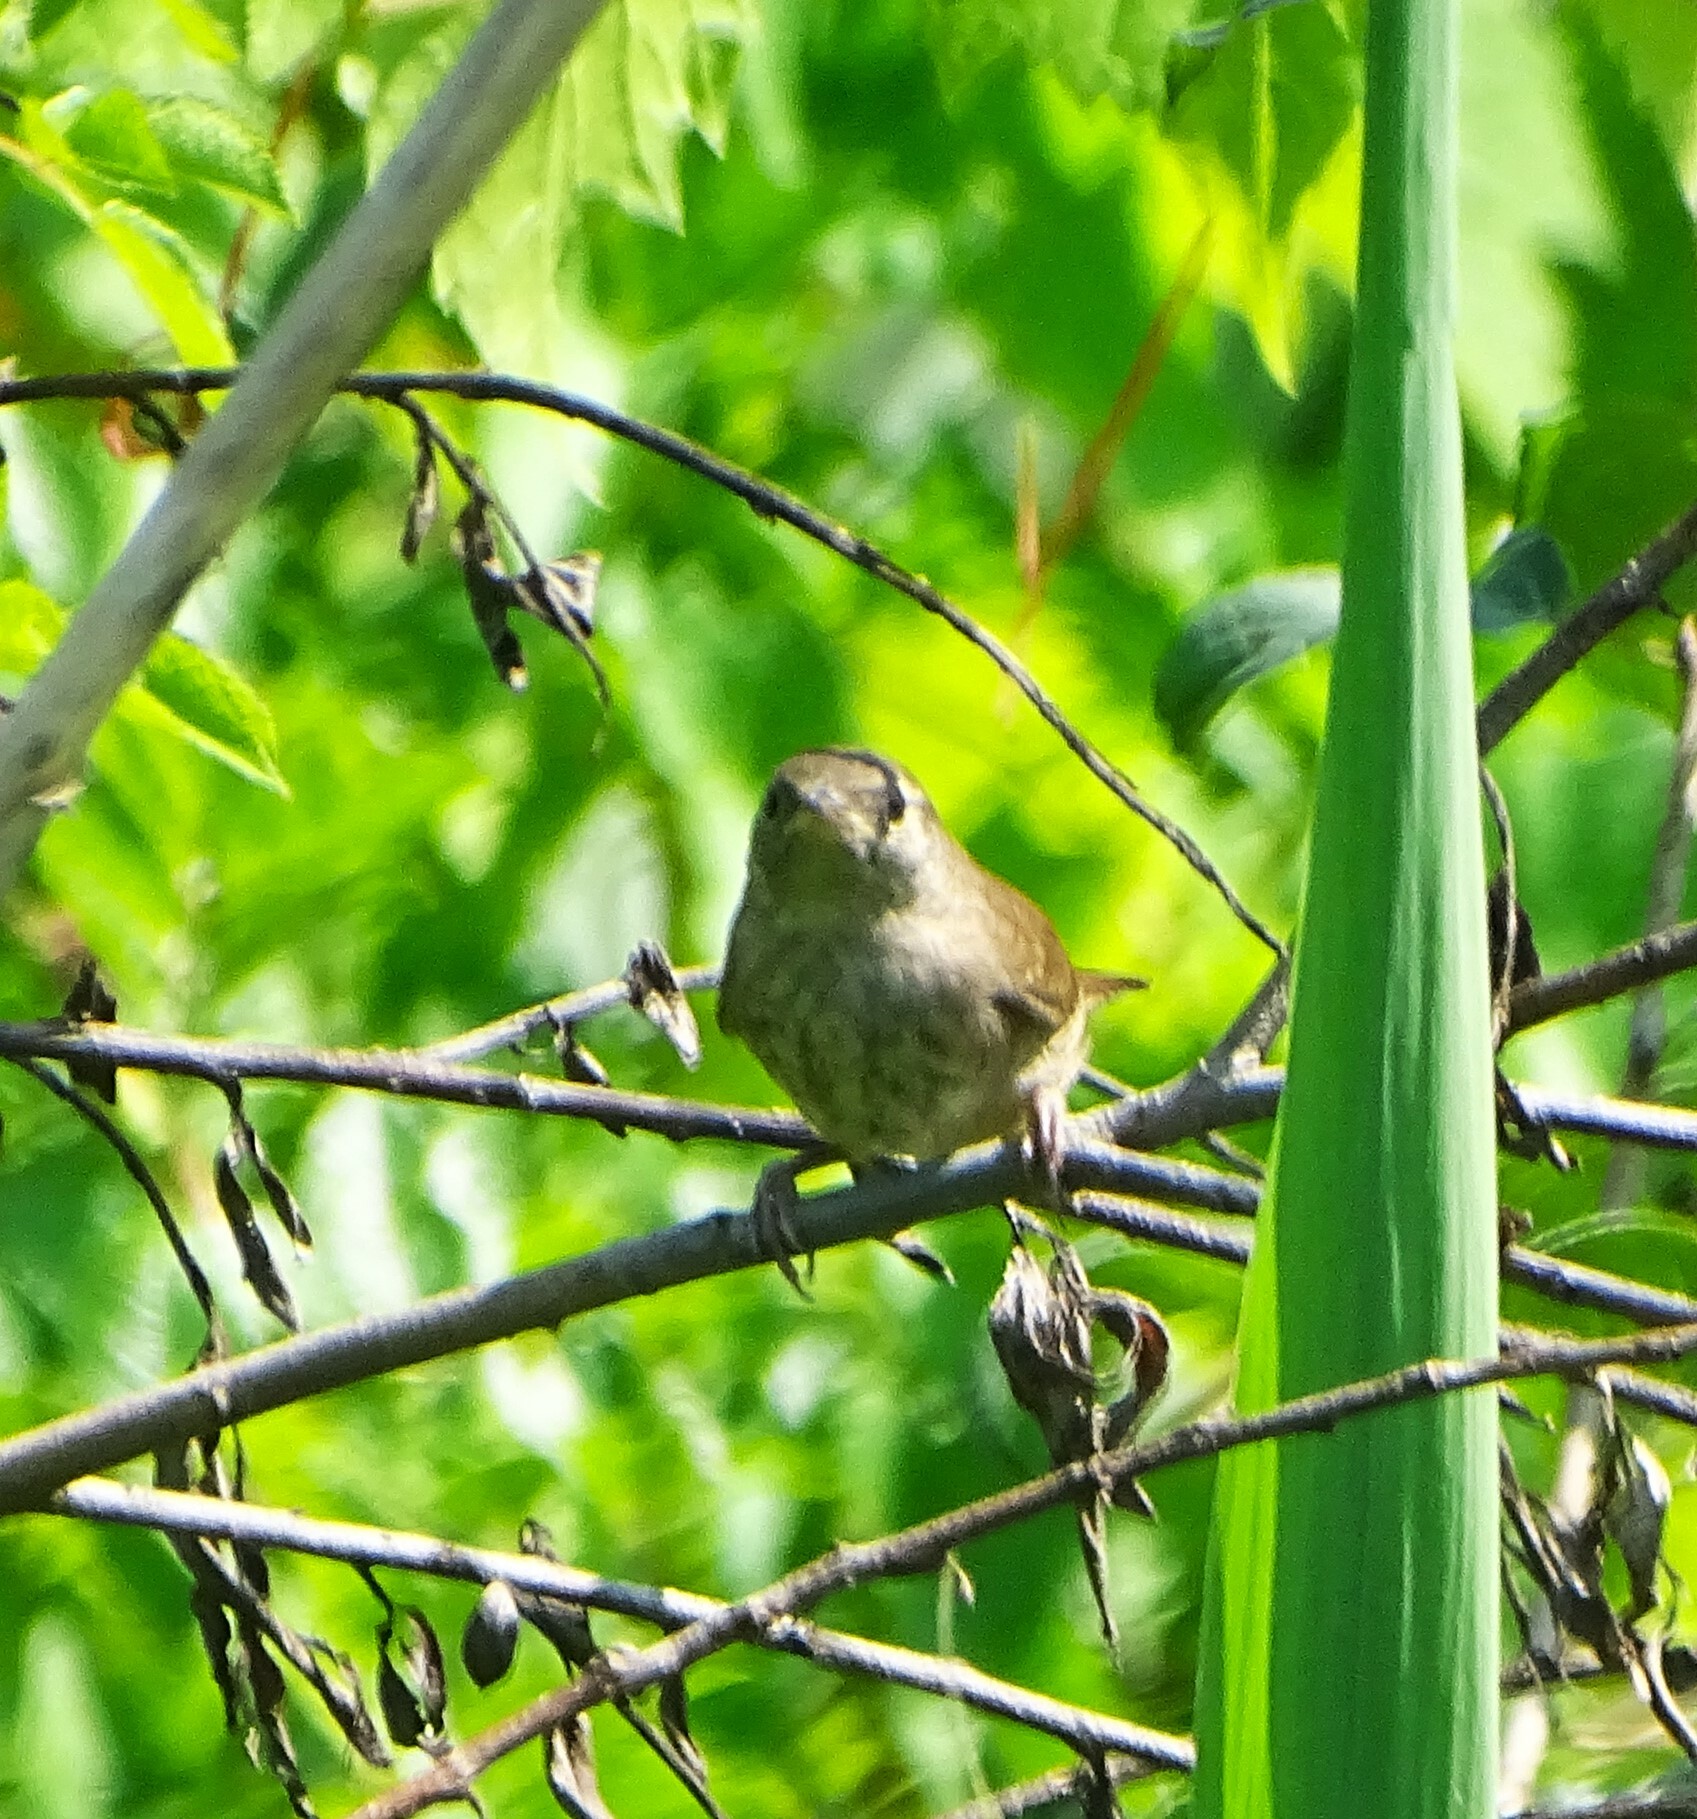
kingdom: Animalia
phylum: Chordata
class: Aves
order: Passeriformes
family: Troglodytidae
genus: Troglodytes
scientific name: Troglodytes aedon
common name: House wren
